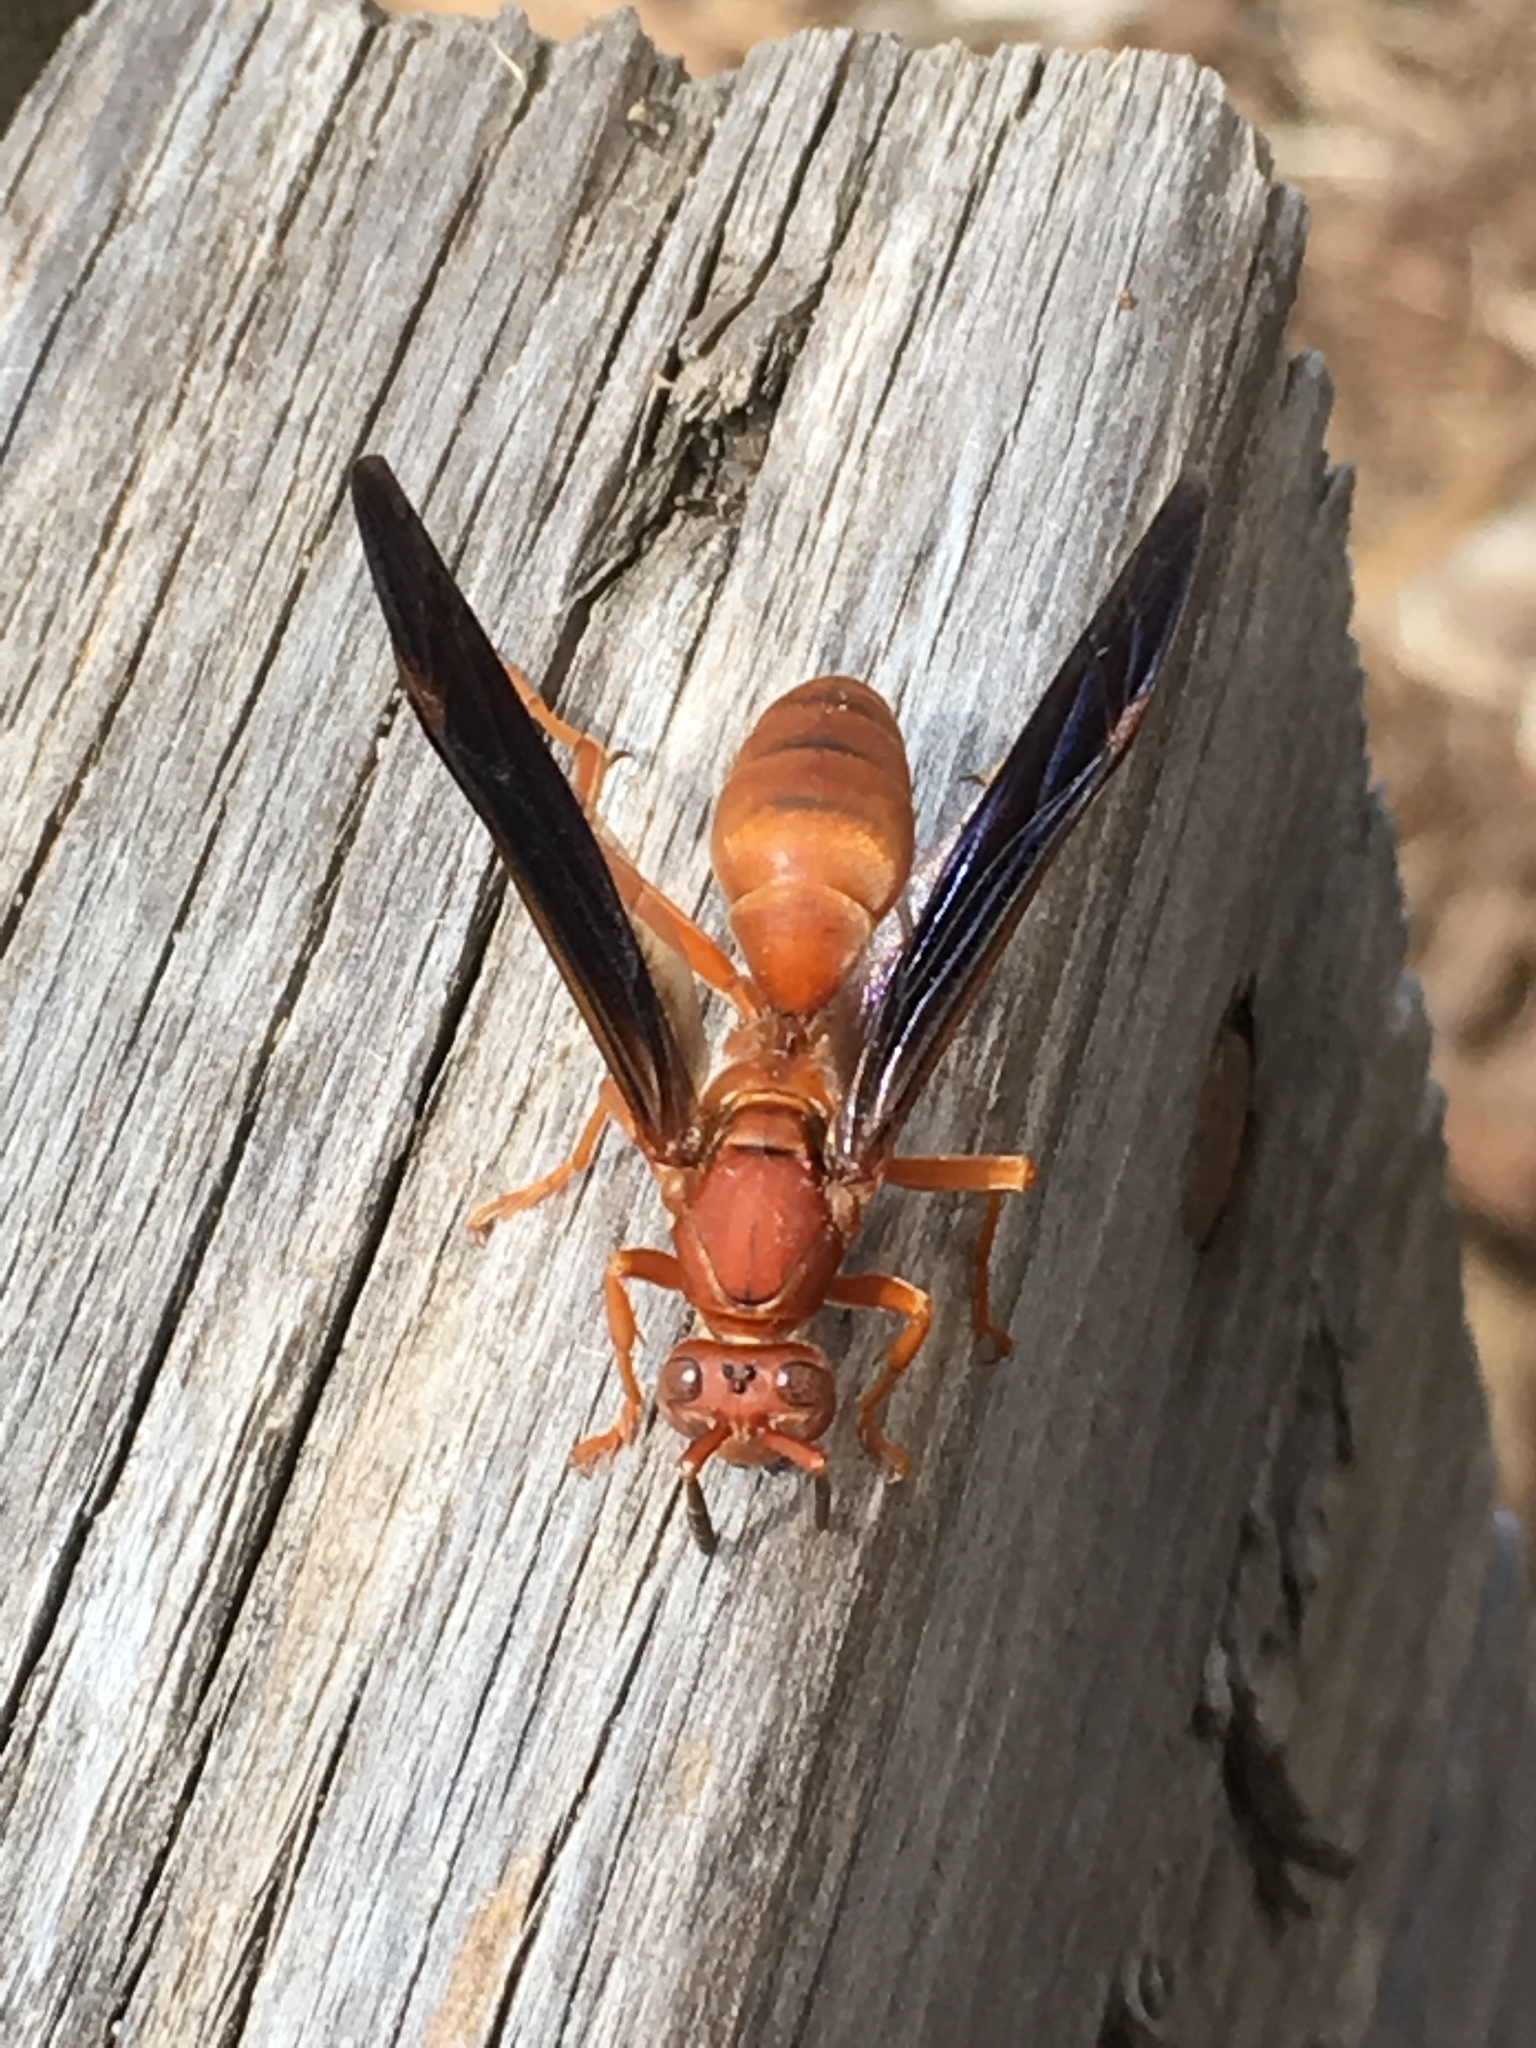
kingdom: Animalia
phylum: Arthropoda
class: Insecta
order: Hymenoptera
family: Vespidae
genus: Fuscopolistes
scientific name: Fuscopolistes
